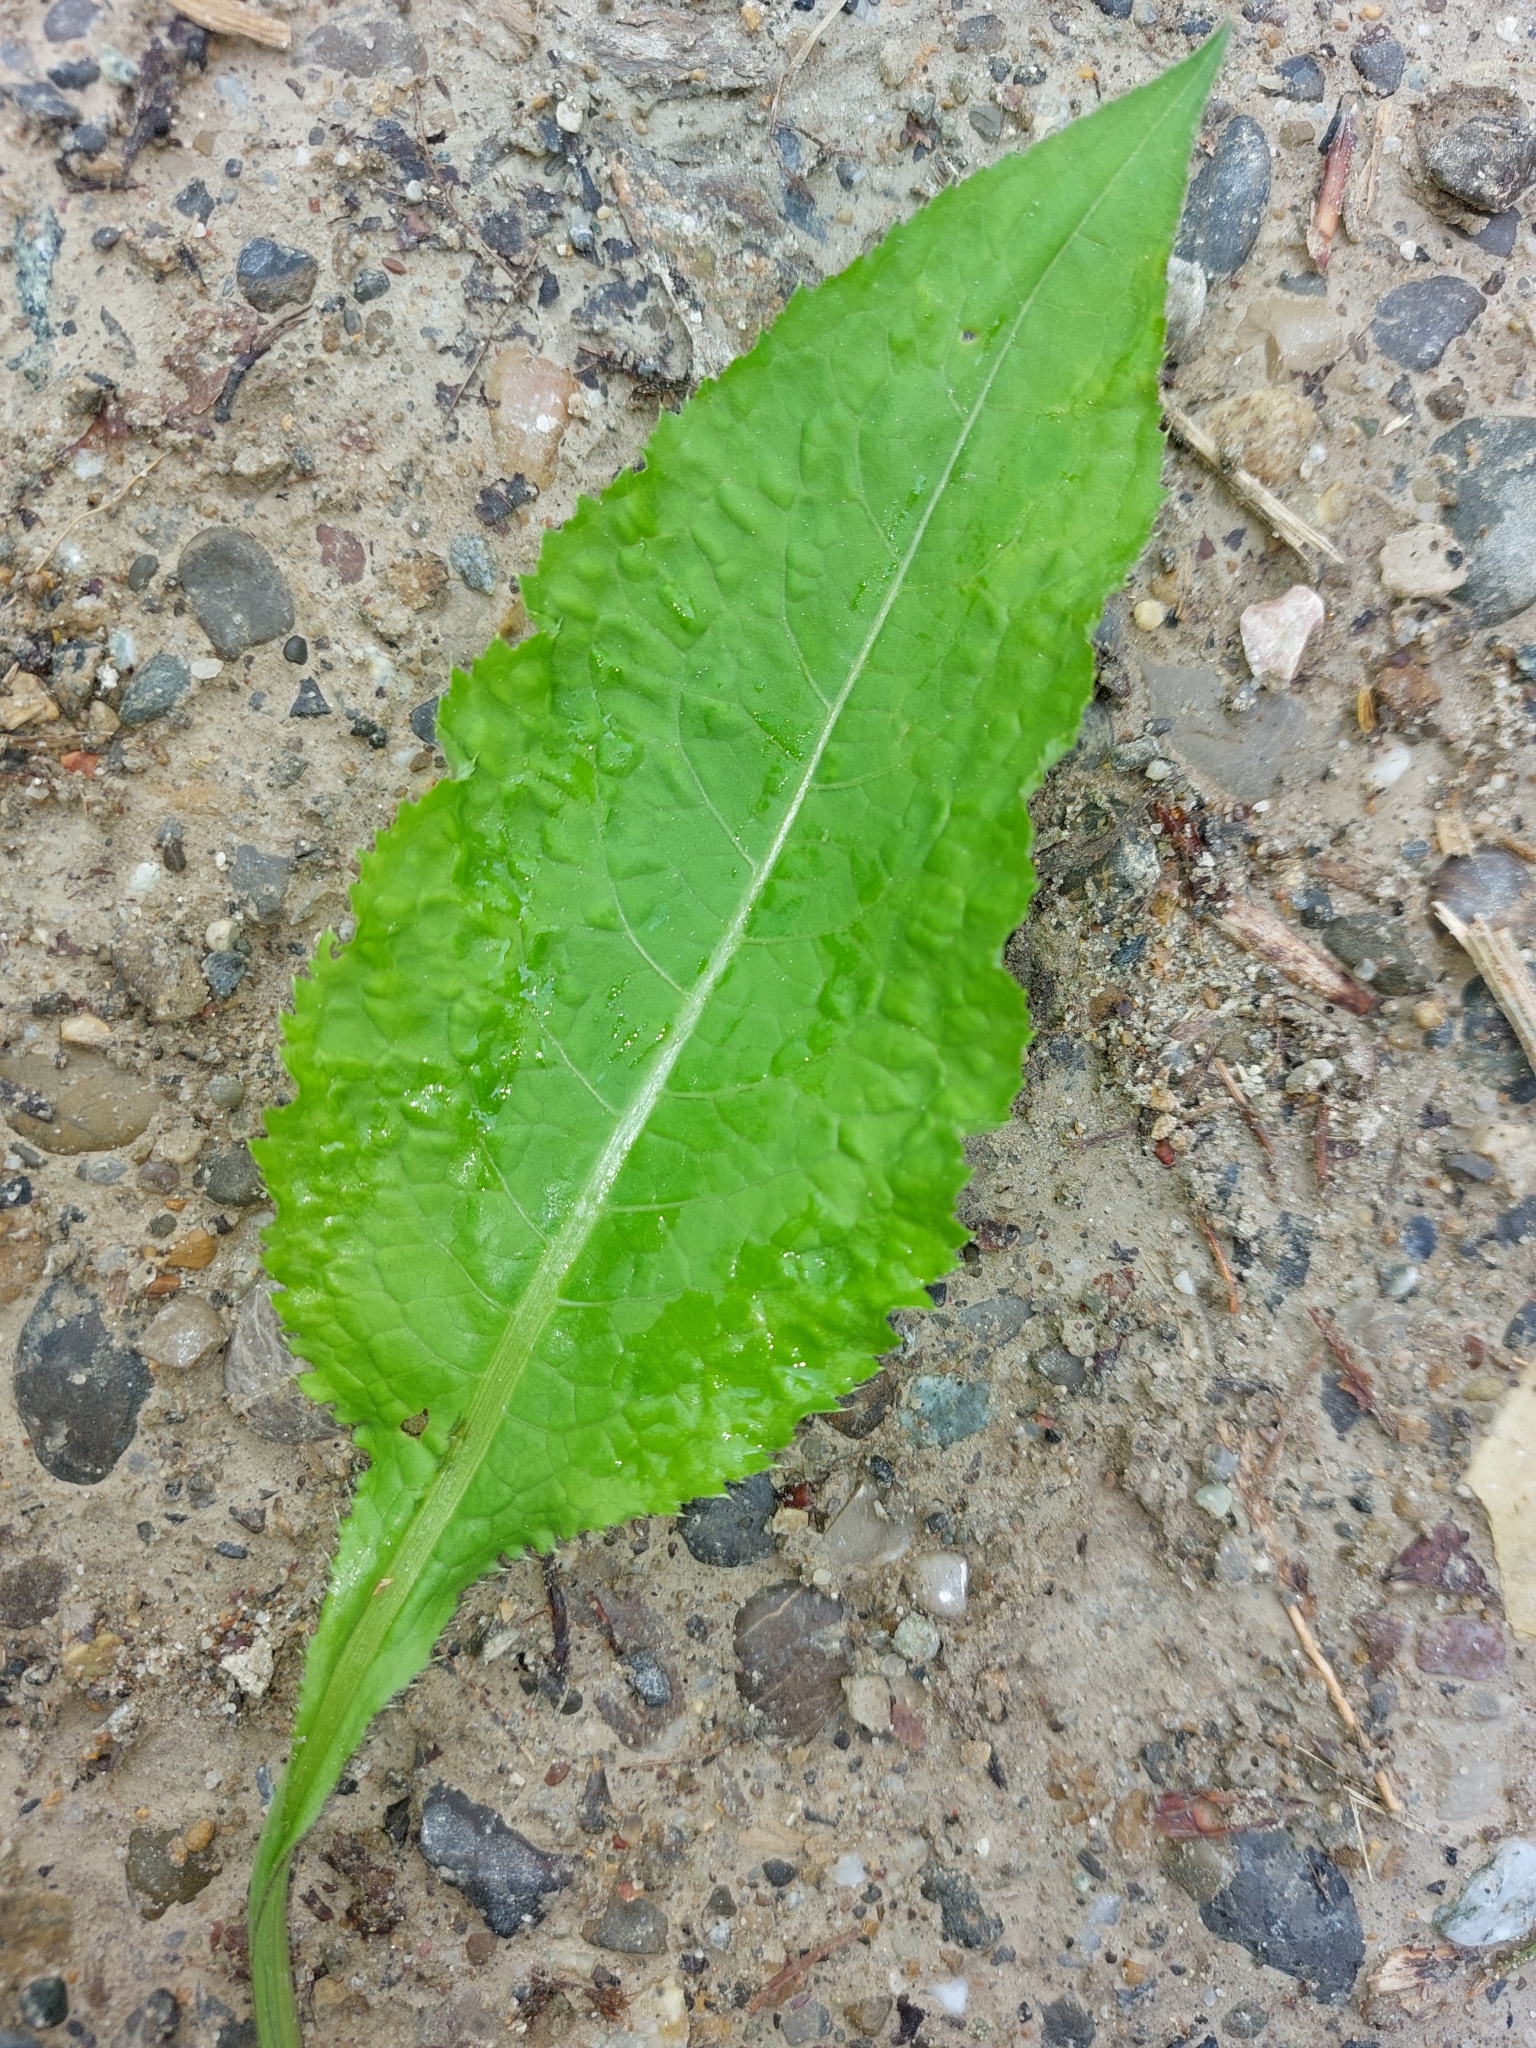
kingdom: Plantae
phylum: Tracheophyta
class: Magnoliopsida
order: Asterales
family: Asteraceae
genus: Cirsium
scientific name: Cirsium oleraceum
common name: Cabbage thistle
